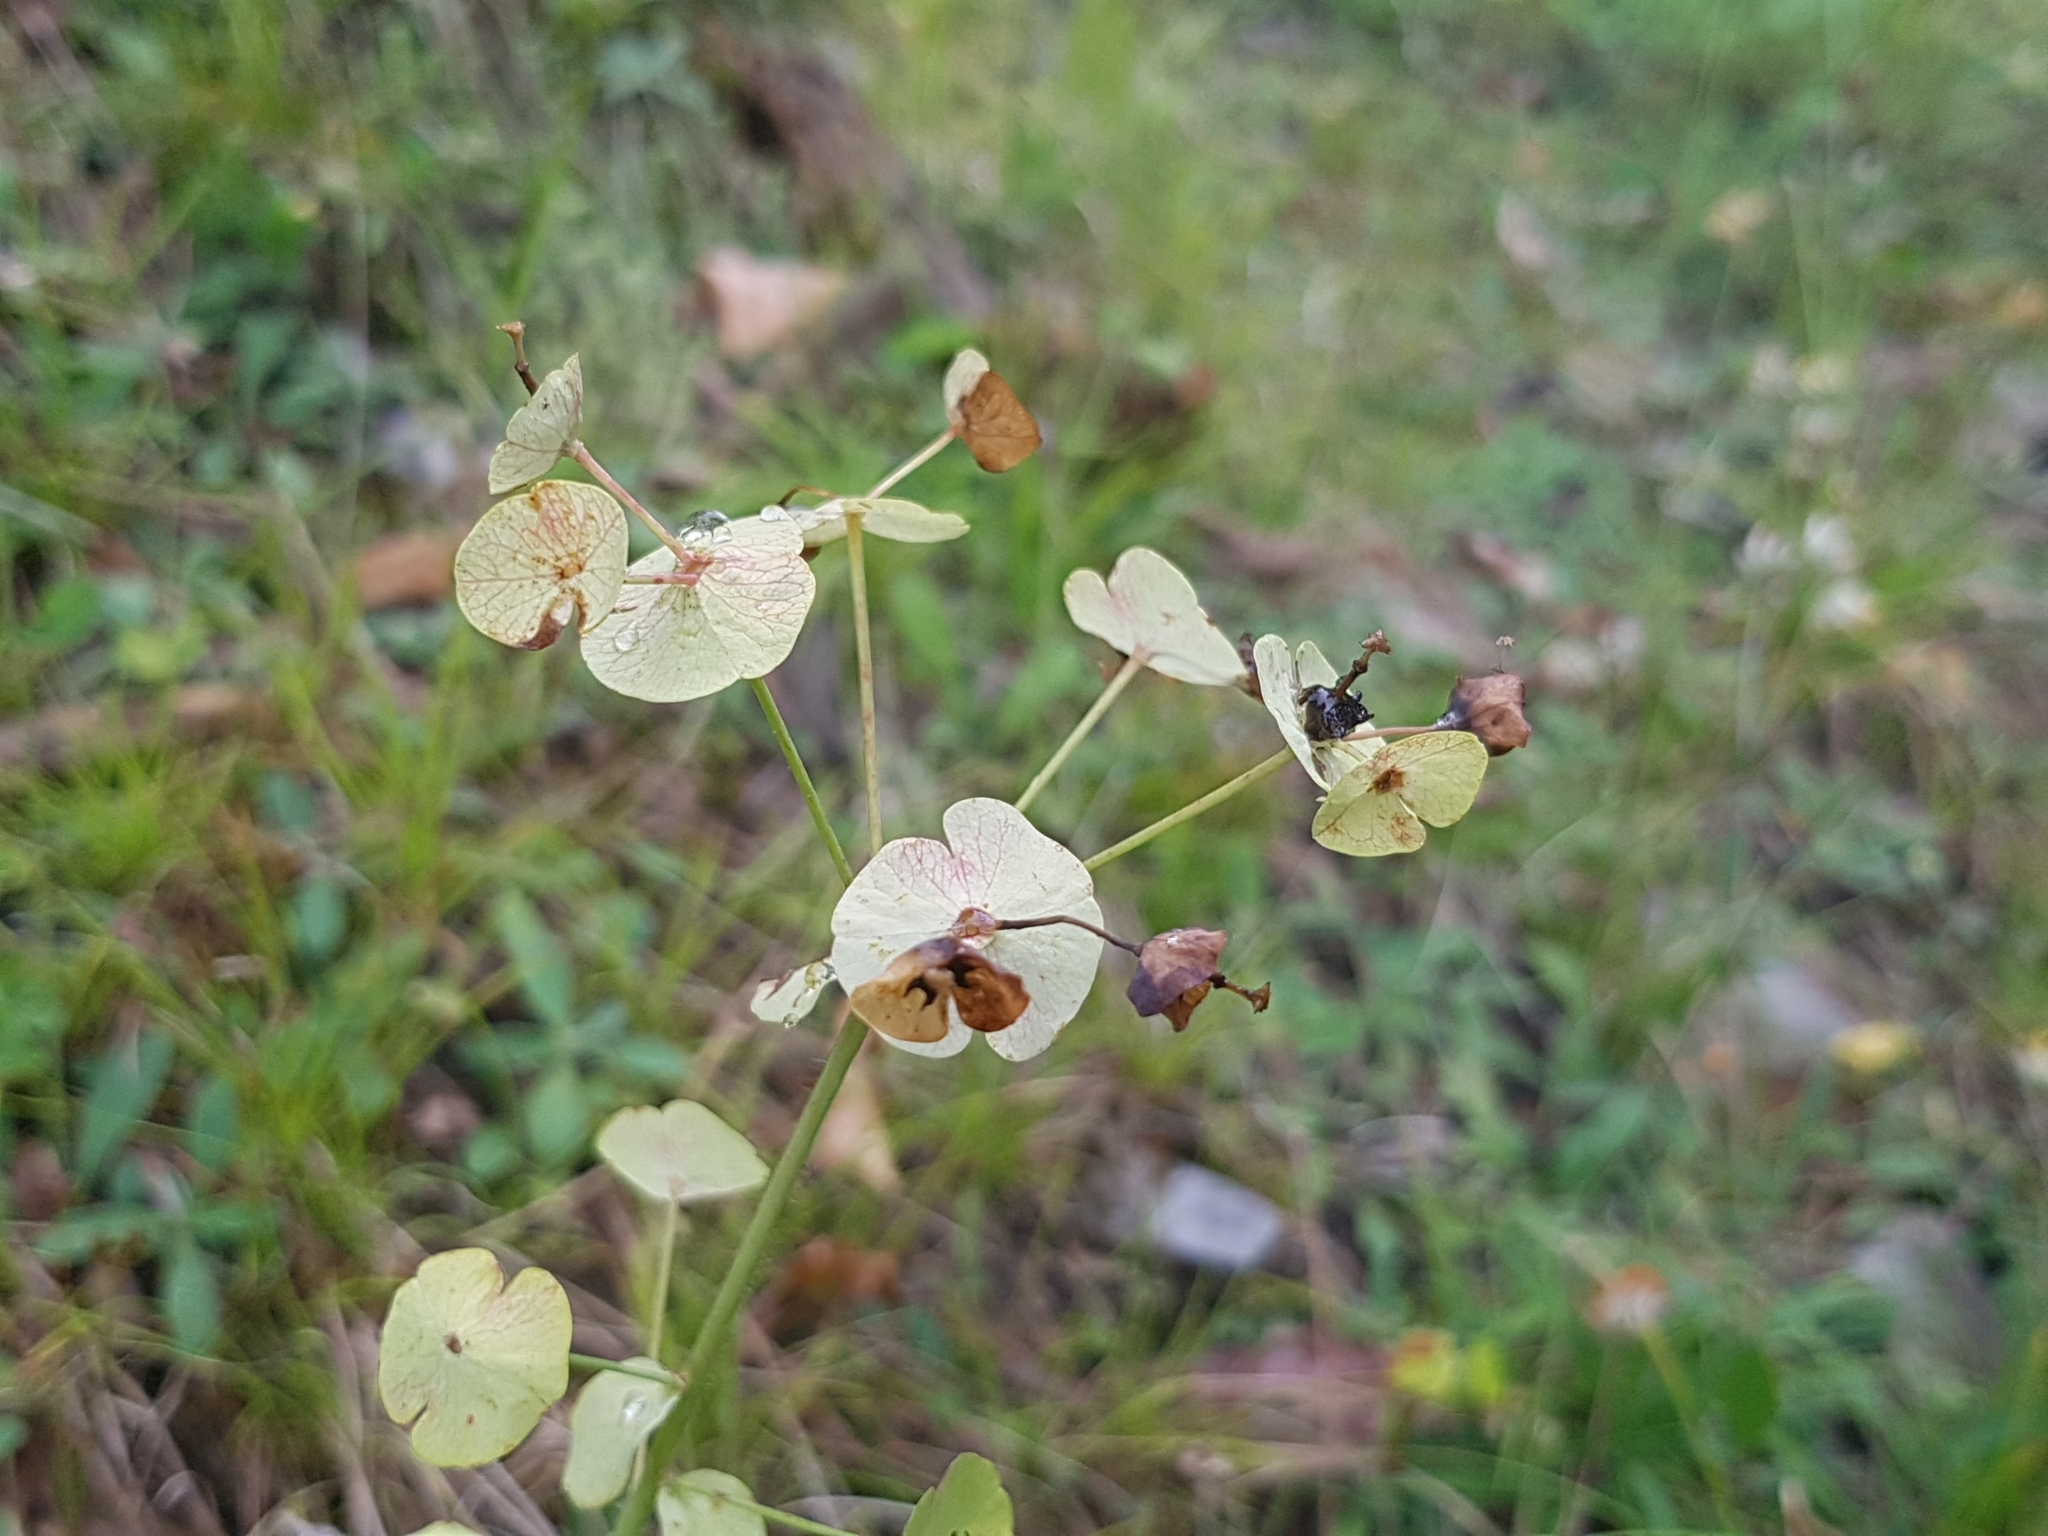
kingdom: Plantae
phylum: Tracheophyta
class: Magnoliopsida
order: Malpighiales
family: Euphorbiaceae
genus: Euphorbia
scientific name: Euphorbia amygdaloides
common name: Wood spurge
